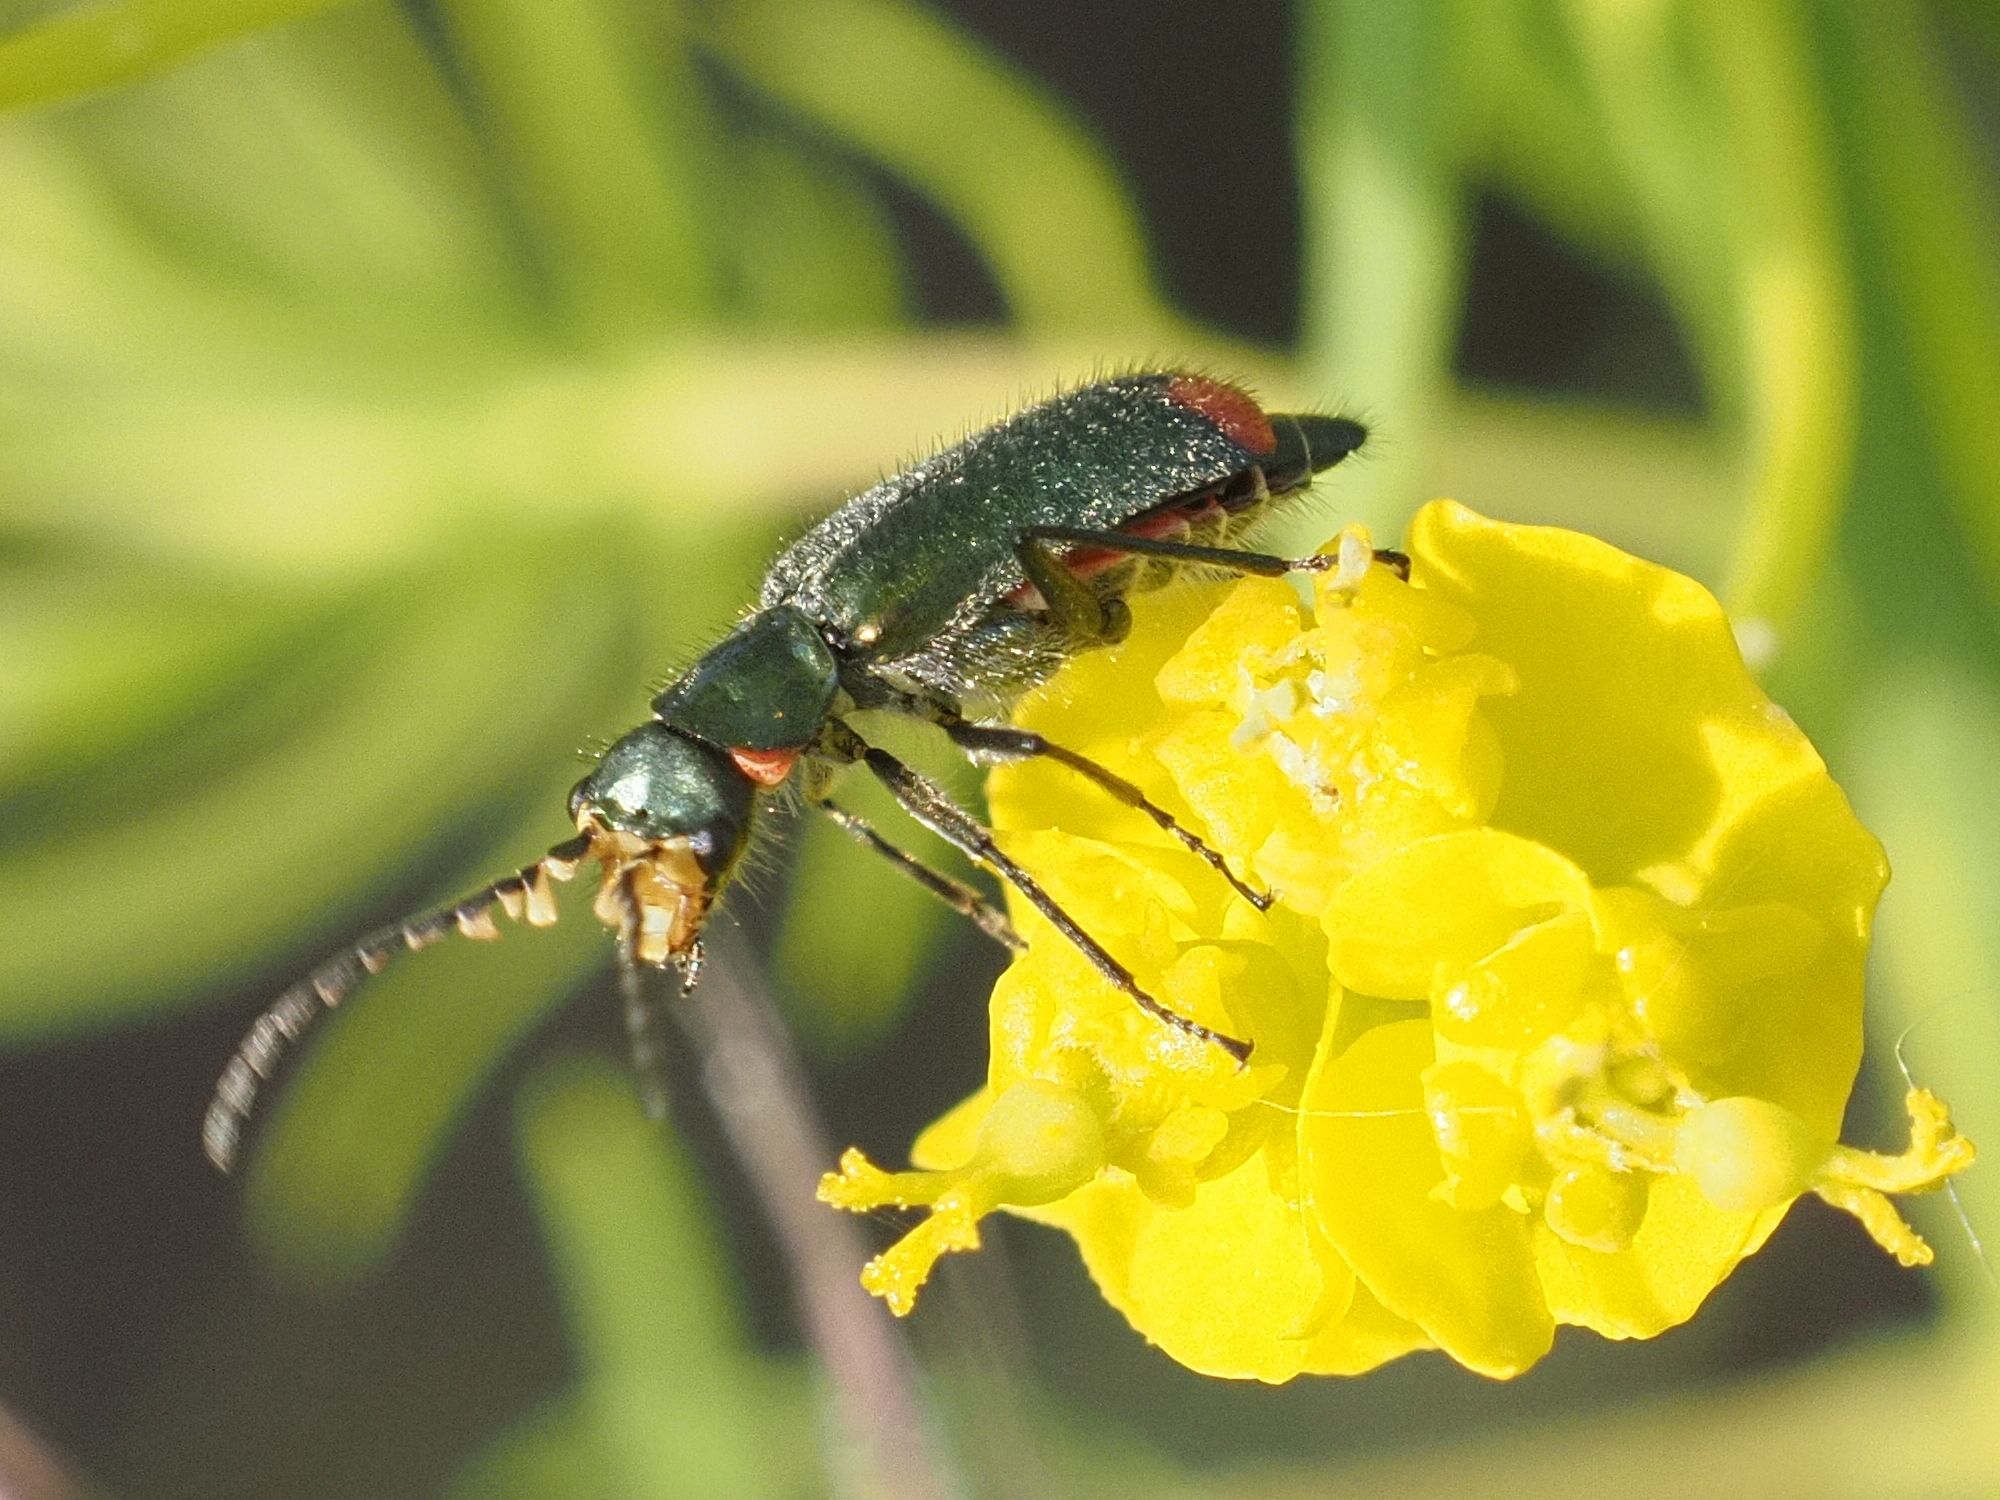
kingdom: Animalia
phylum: Arthropoda
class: Insecta
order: Coleoptera
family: Melyridae
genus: Malachius
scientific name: Malachius bipustulatus
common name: Malachite beetle
